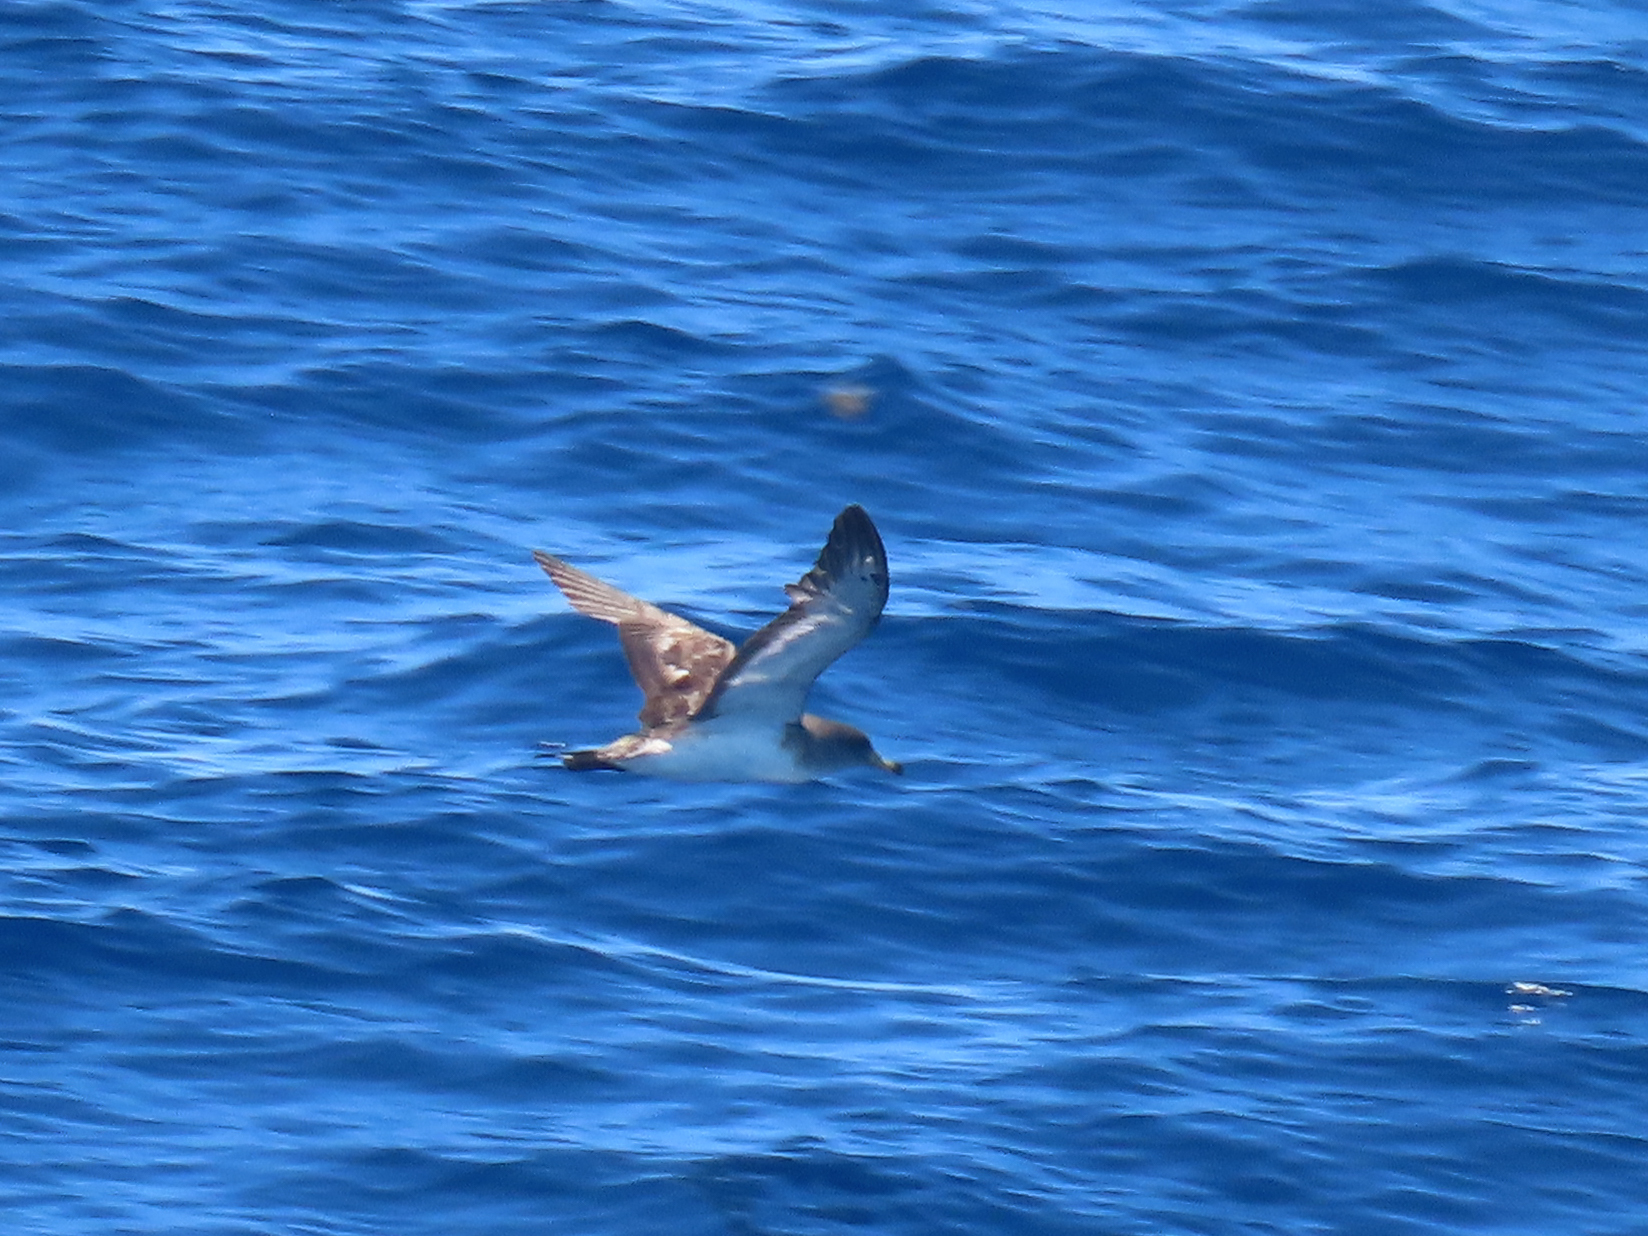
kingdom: Animalia
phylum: Chordata
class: Aves
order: Procellariiformes
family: Procellariidae
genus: Calonectris
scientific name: Calonectris diomedea
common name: Cory's shearwater
